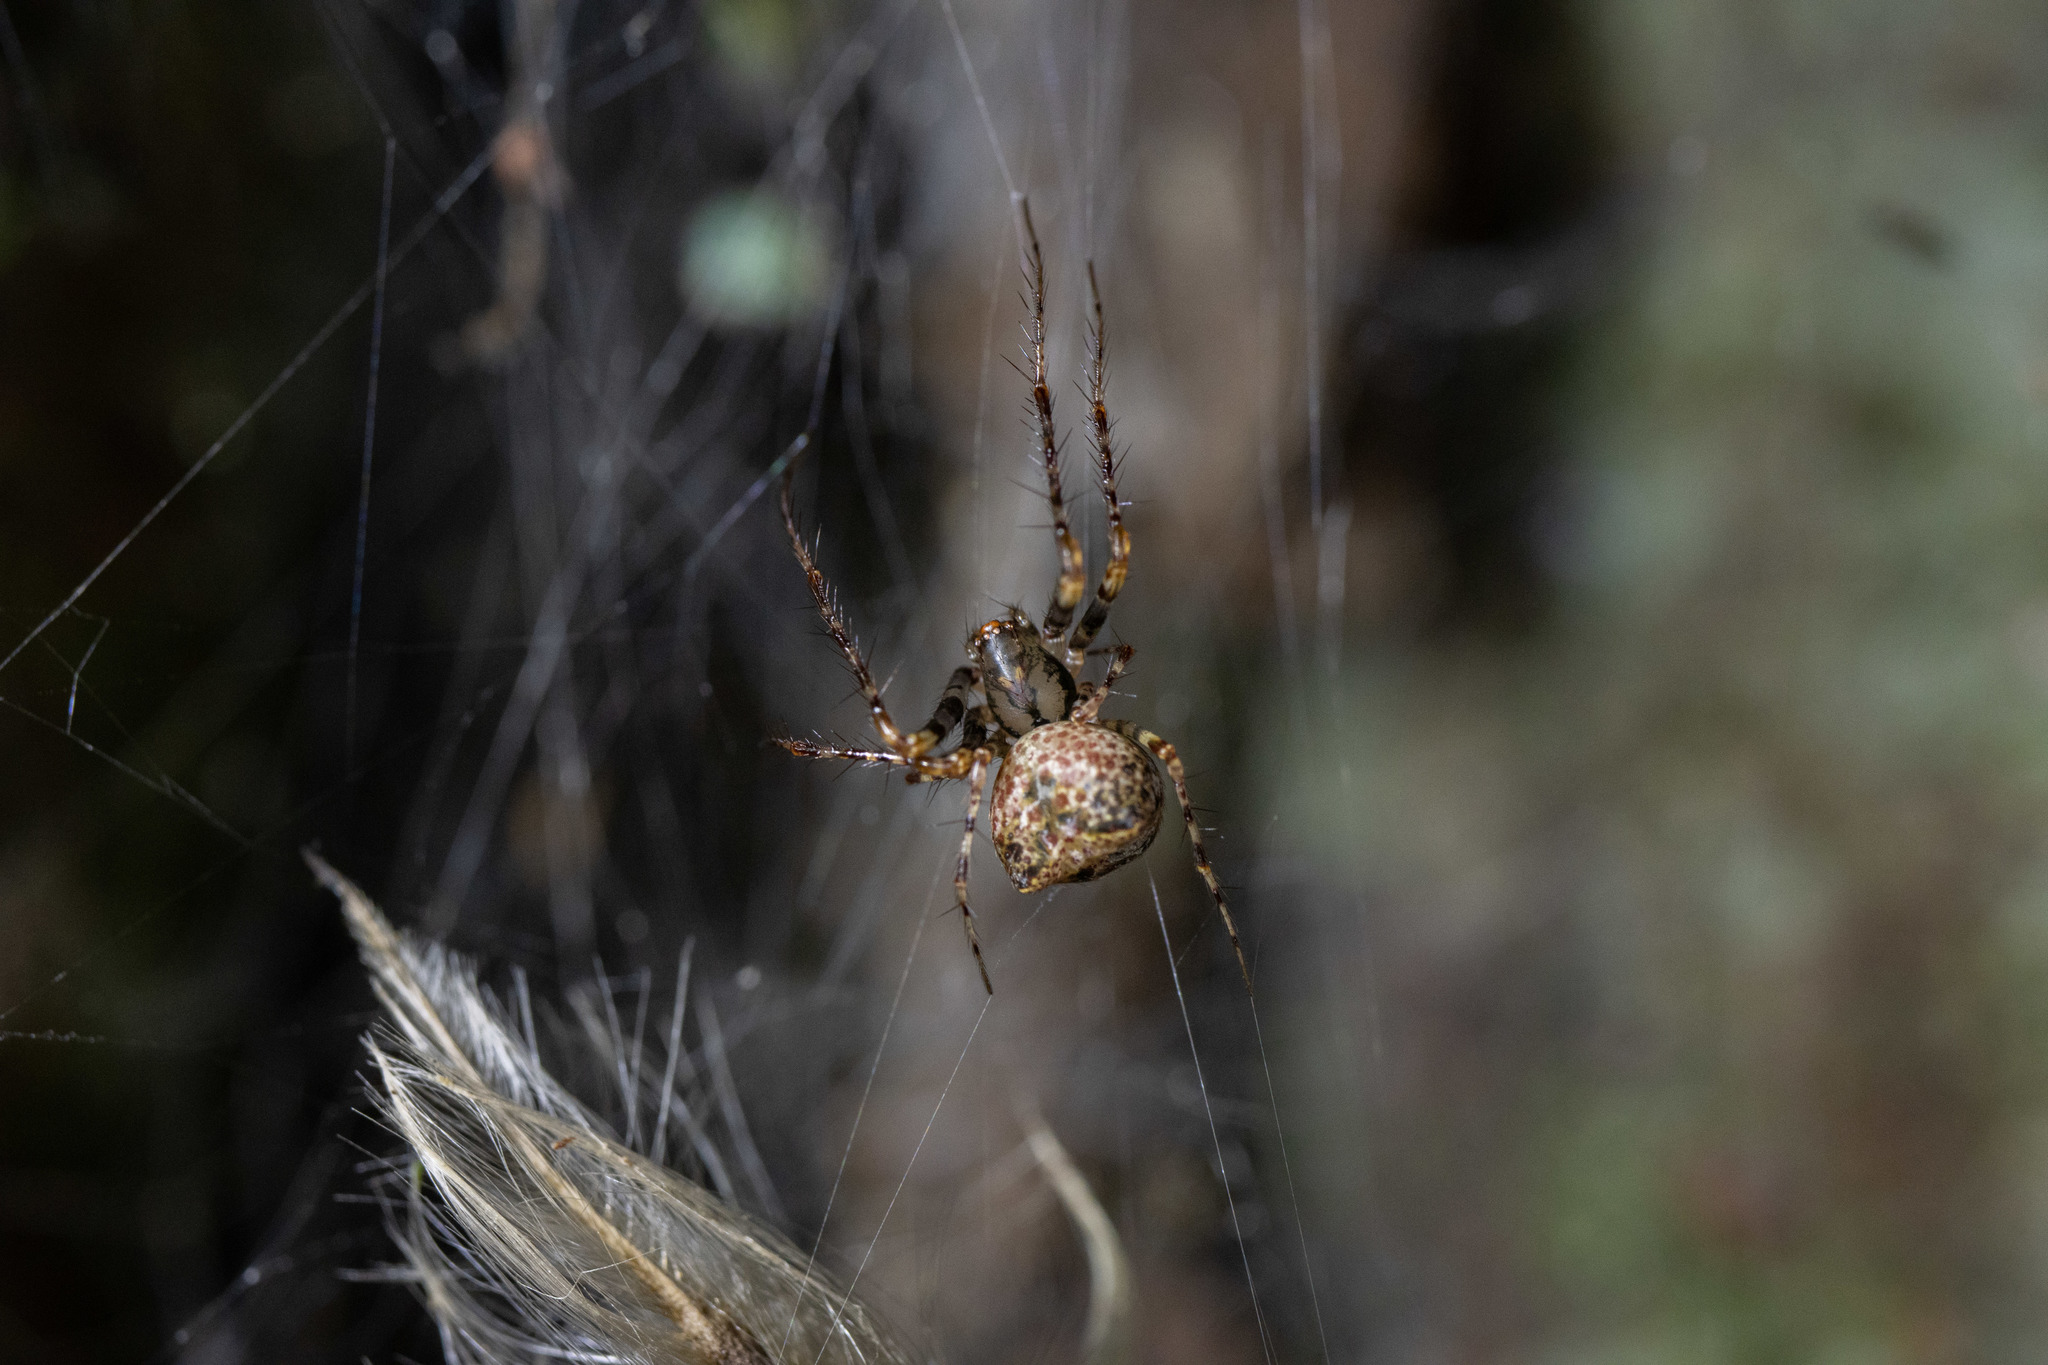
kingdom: Animalia
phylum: Arthropoda
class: Arachnida
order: Araneae
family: Mimetidae
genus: Australomimetus
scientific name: Australomimetus sennio
